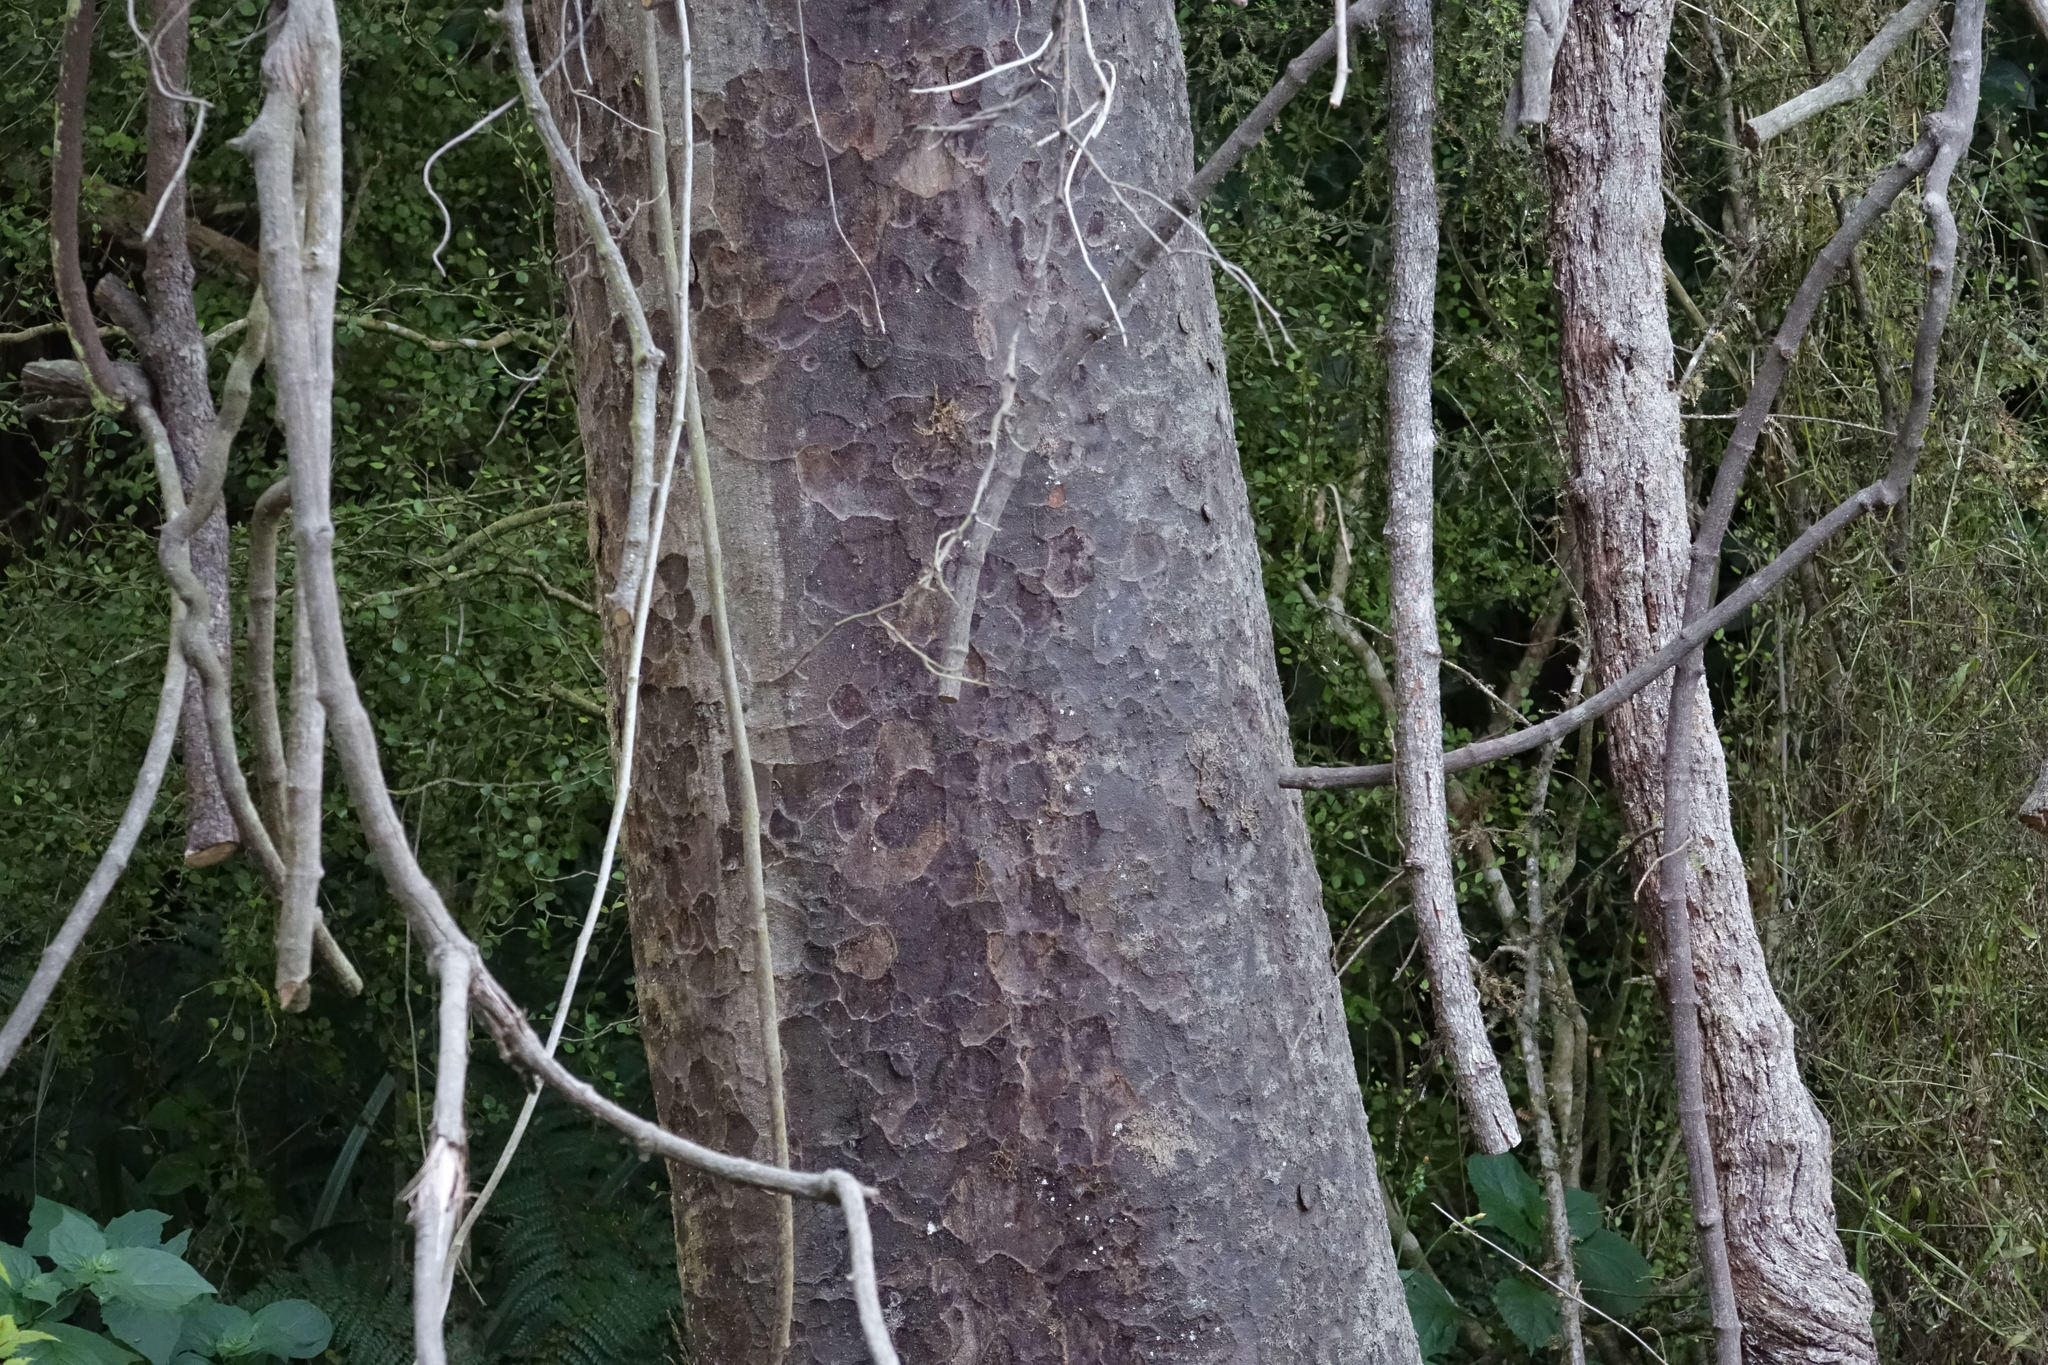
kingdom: Plantae
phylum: Tracheophyta
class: Pinopsida
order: Pinales
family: Podocarpaceae
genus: Prumnopitys
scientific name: Prumnopitys taxifolia
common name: Matai
